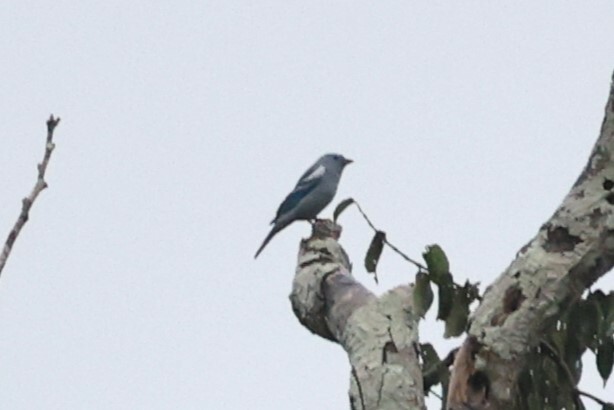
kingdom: Animalia
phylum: Chordata
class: Aves
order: Passeriformes
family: Thraupidae
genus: Thraupis
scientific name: Thraupis episcopus
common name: Blue-grey tanager
